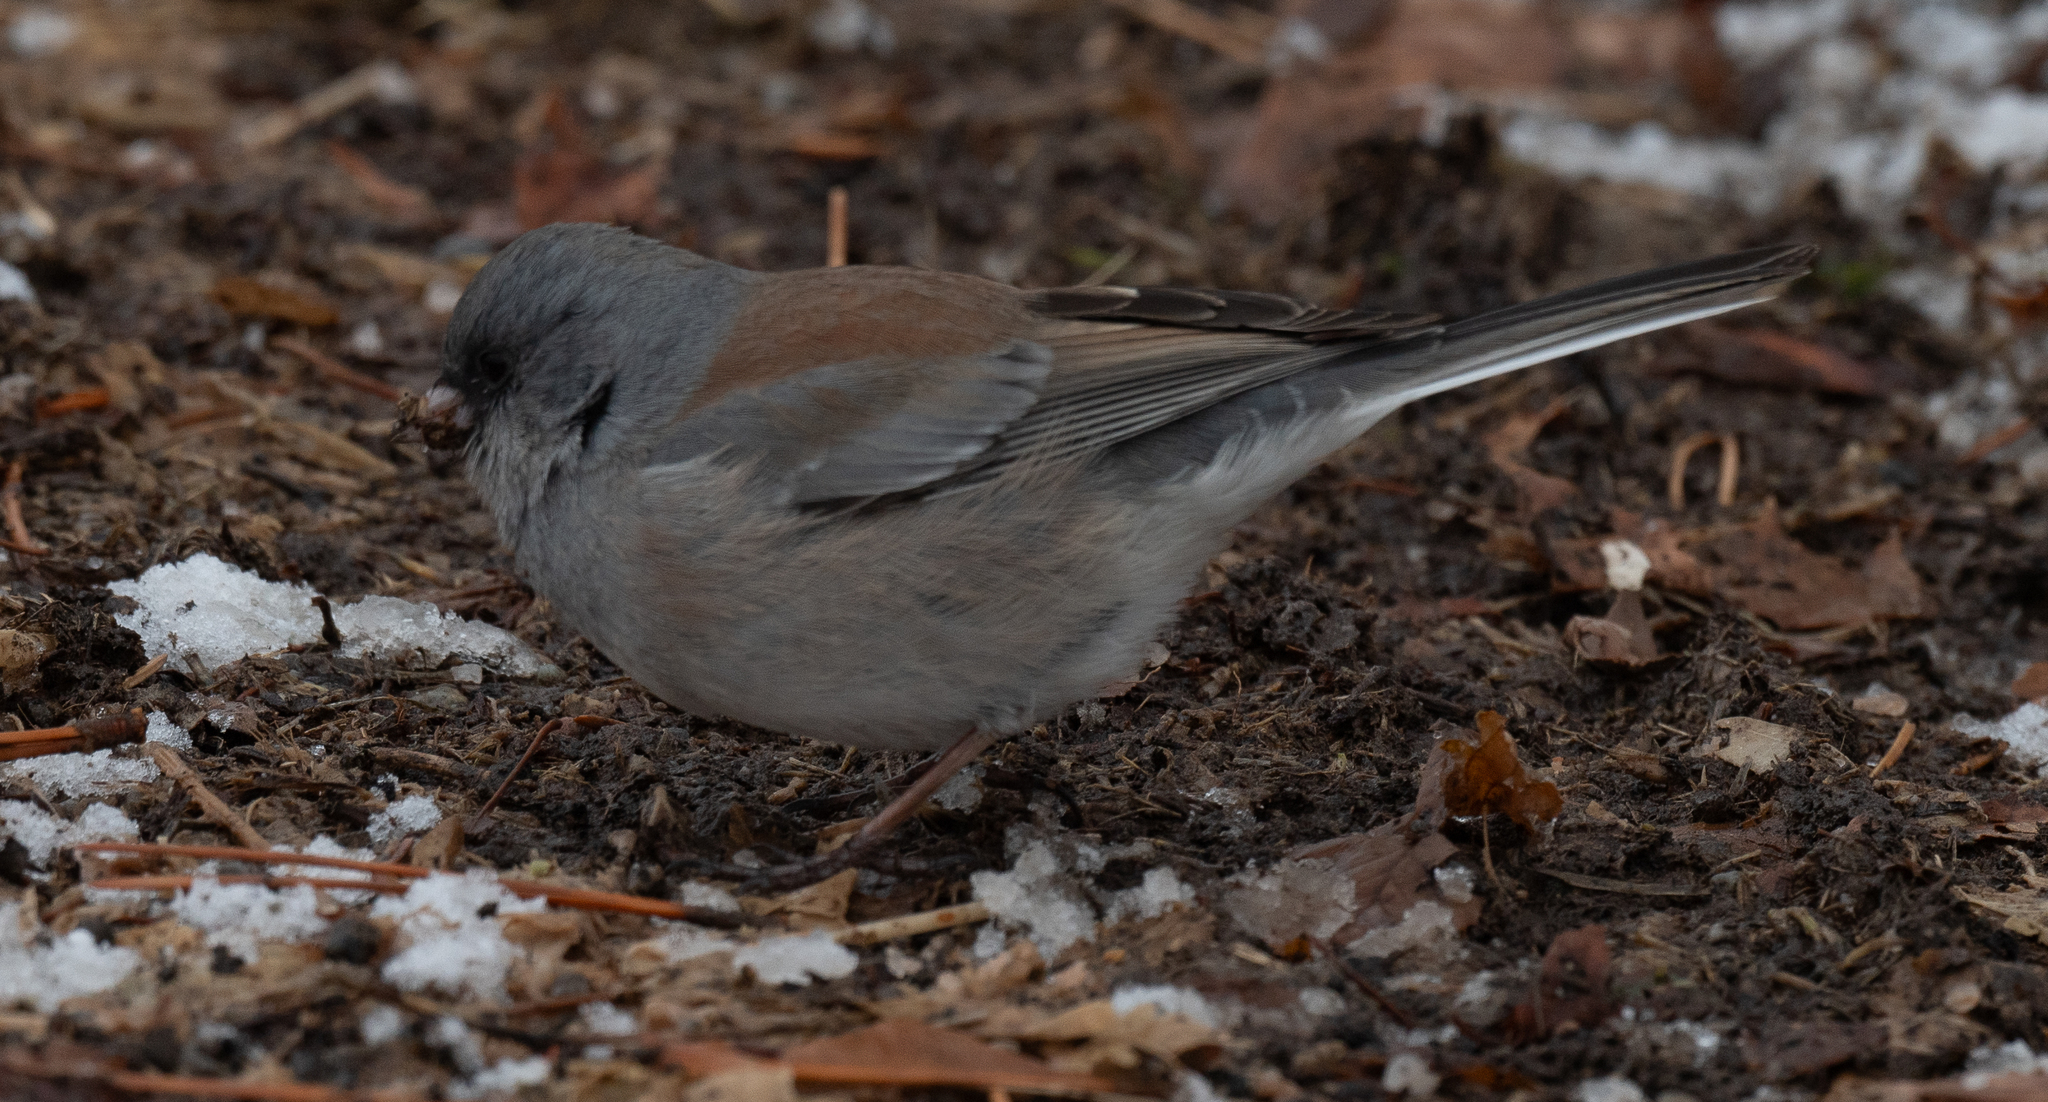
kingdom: Animalia
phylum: Chordata
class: Aves
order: Passeriformes
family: Passerellidae
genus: Junco
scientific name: Junco hyemalis
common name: Dark-eyed junco
